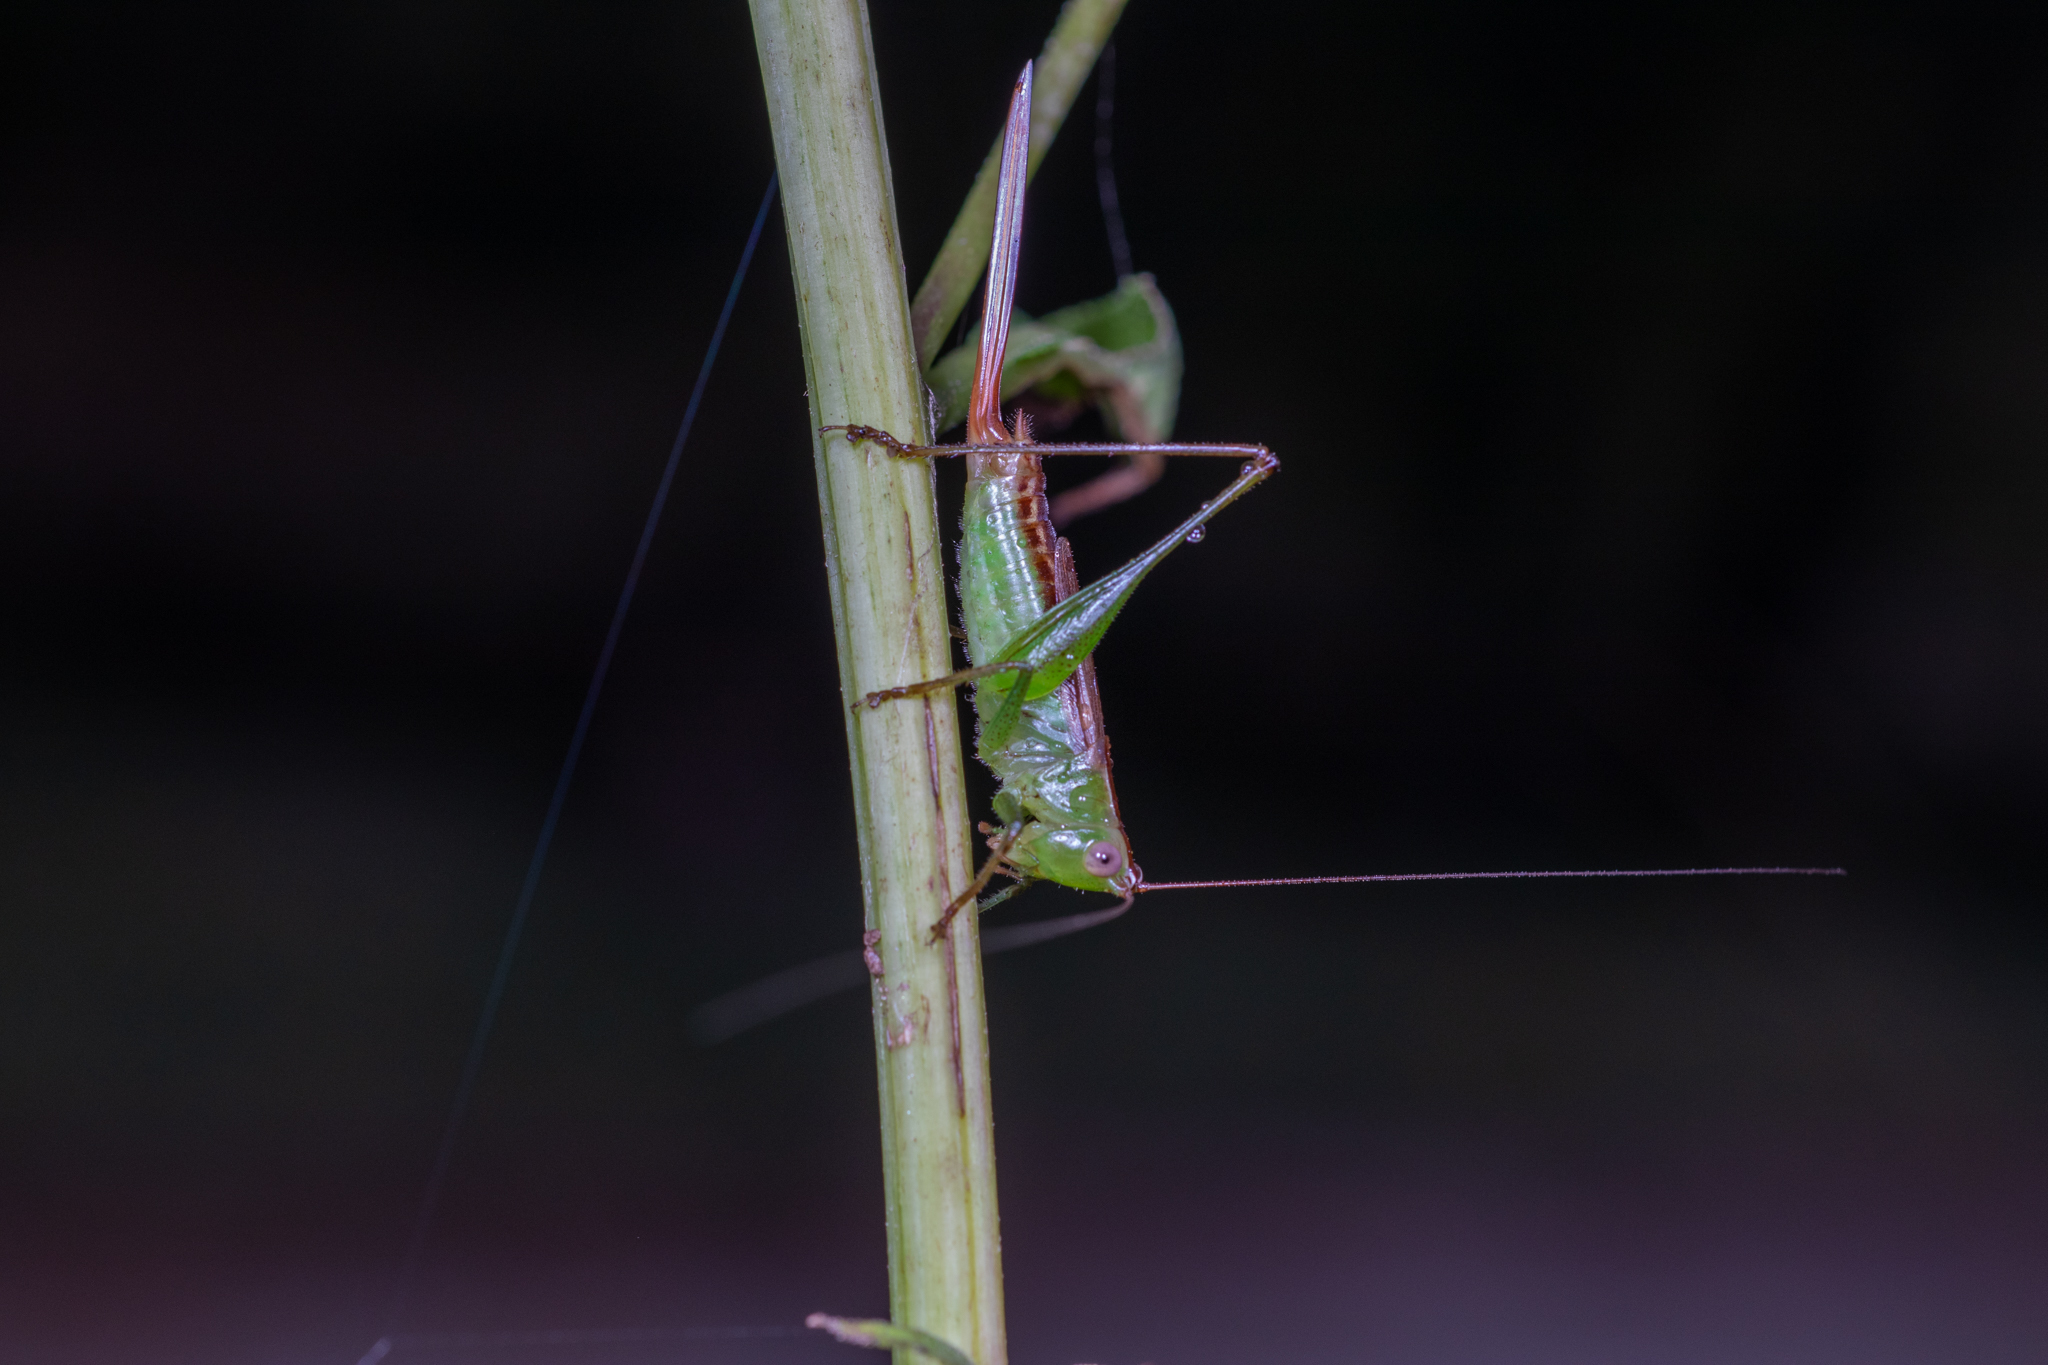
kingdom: Animalia
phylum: Arthropoda
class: Insecta
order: Orthoptera
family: Tettigoniidae
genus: Conocephalus
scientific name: Conocephalus brevipennis
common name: Short-winged meadow katydid
